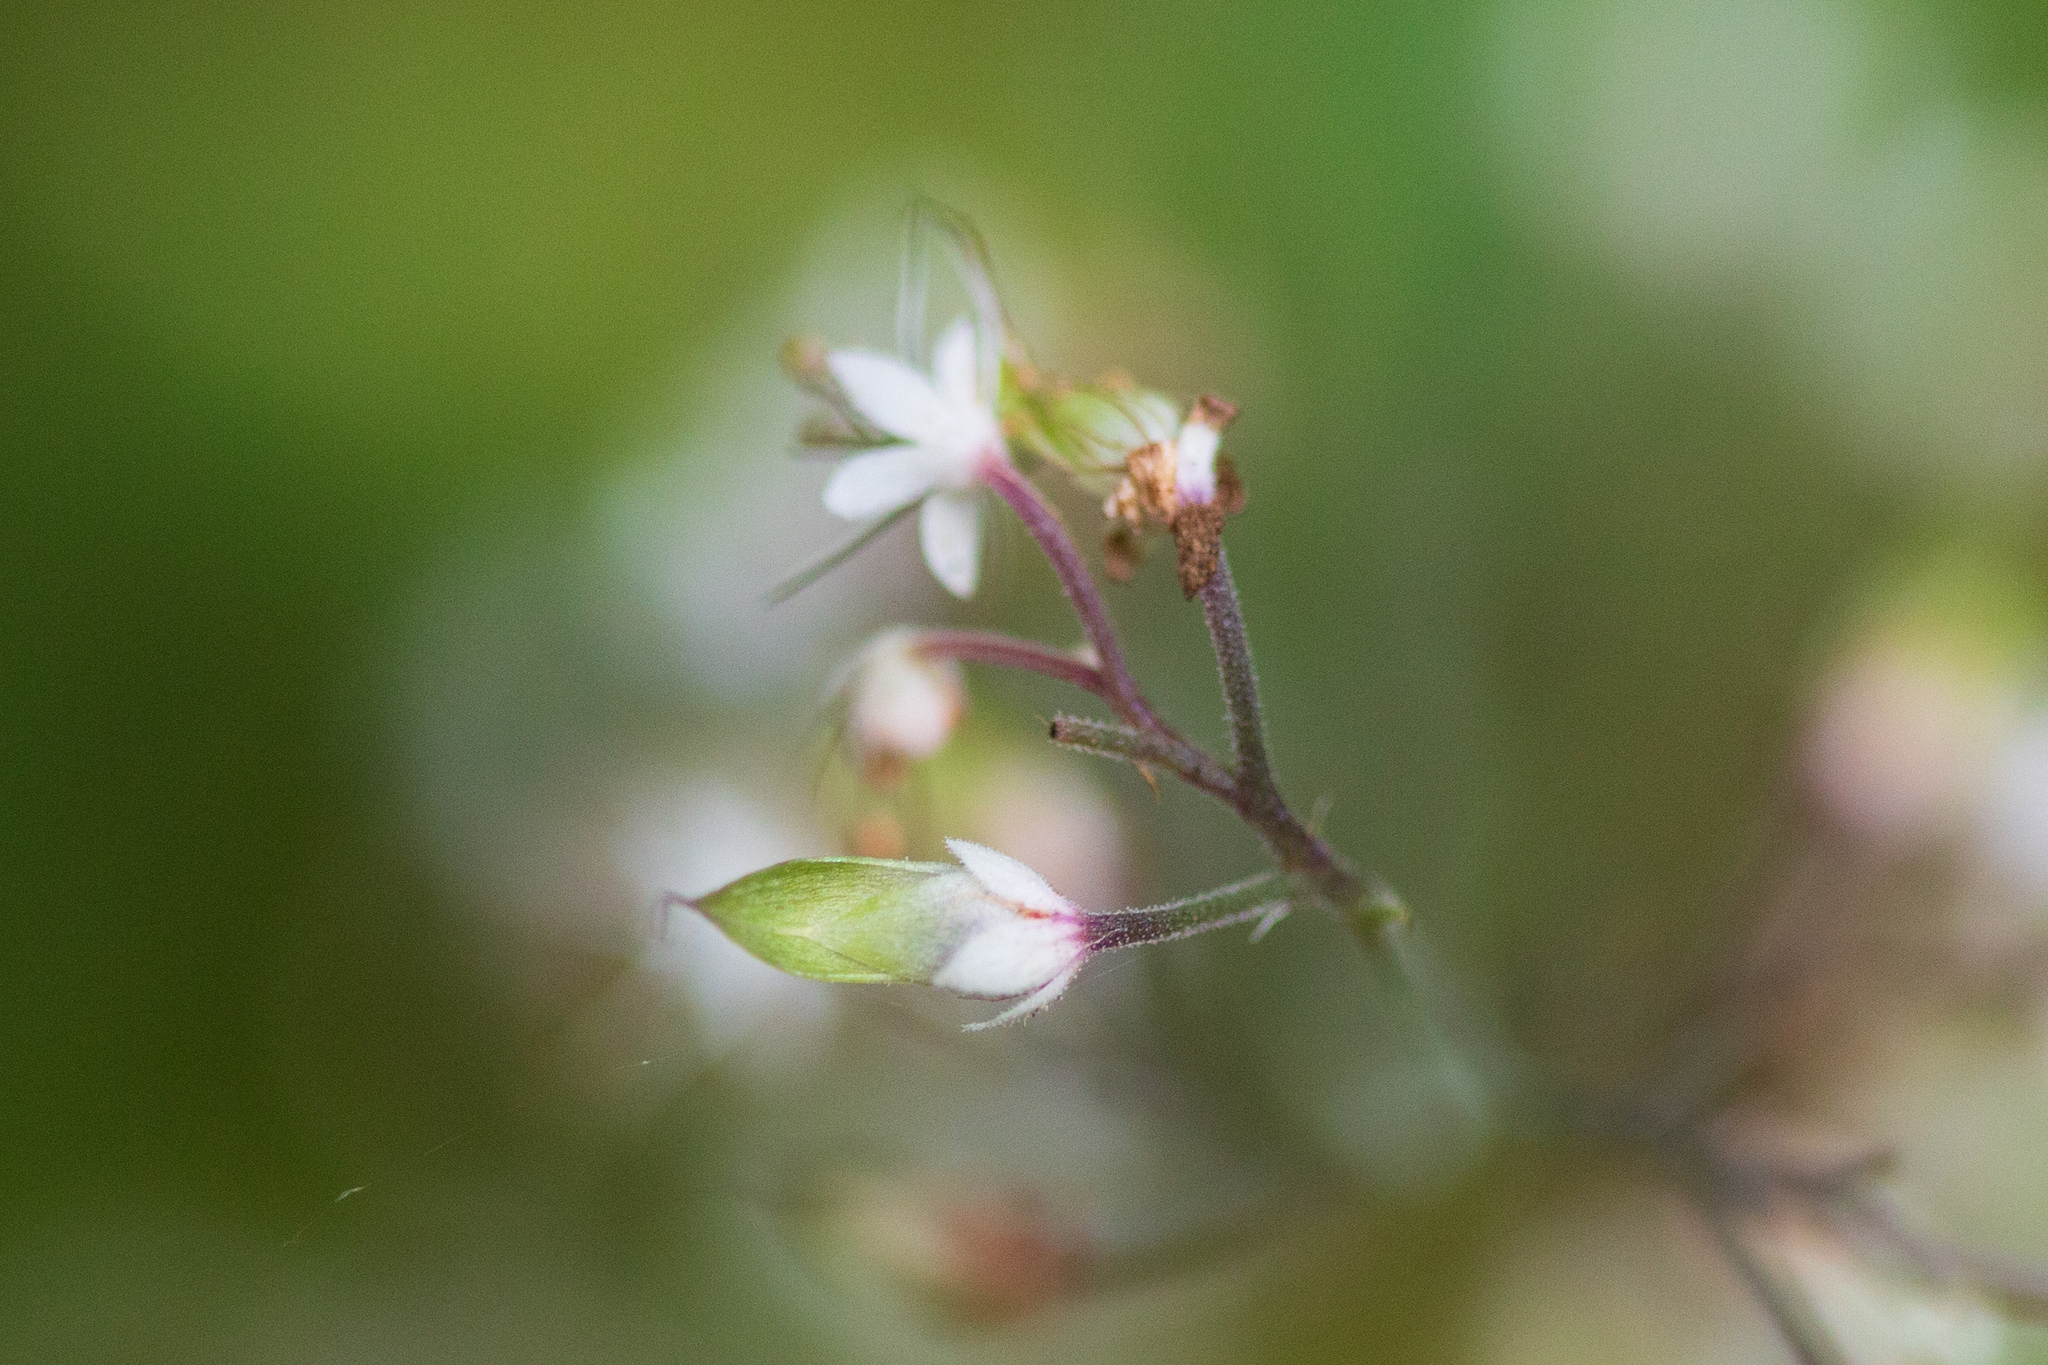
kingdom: Plantae
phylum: Tracheophyta
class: Magnoliopsida
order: Saxifragales
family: Saxifragaceae
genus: Tiarella
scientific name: Tiarella trifoliata
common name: Sugar-scoop
